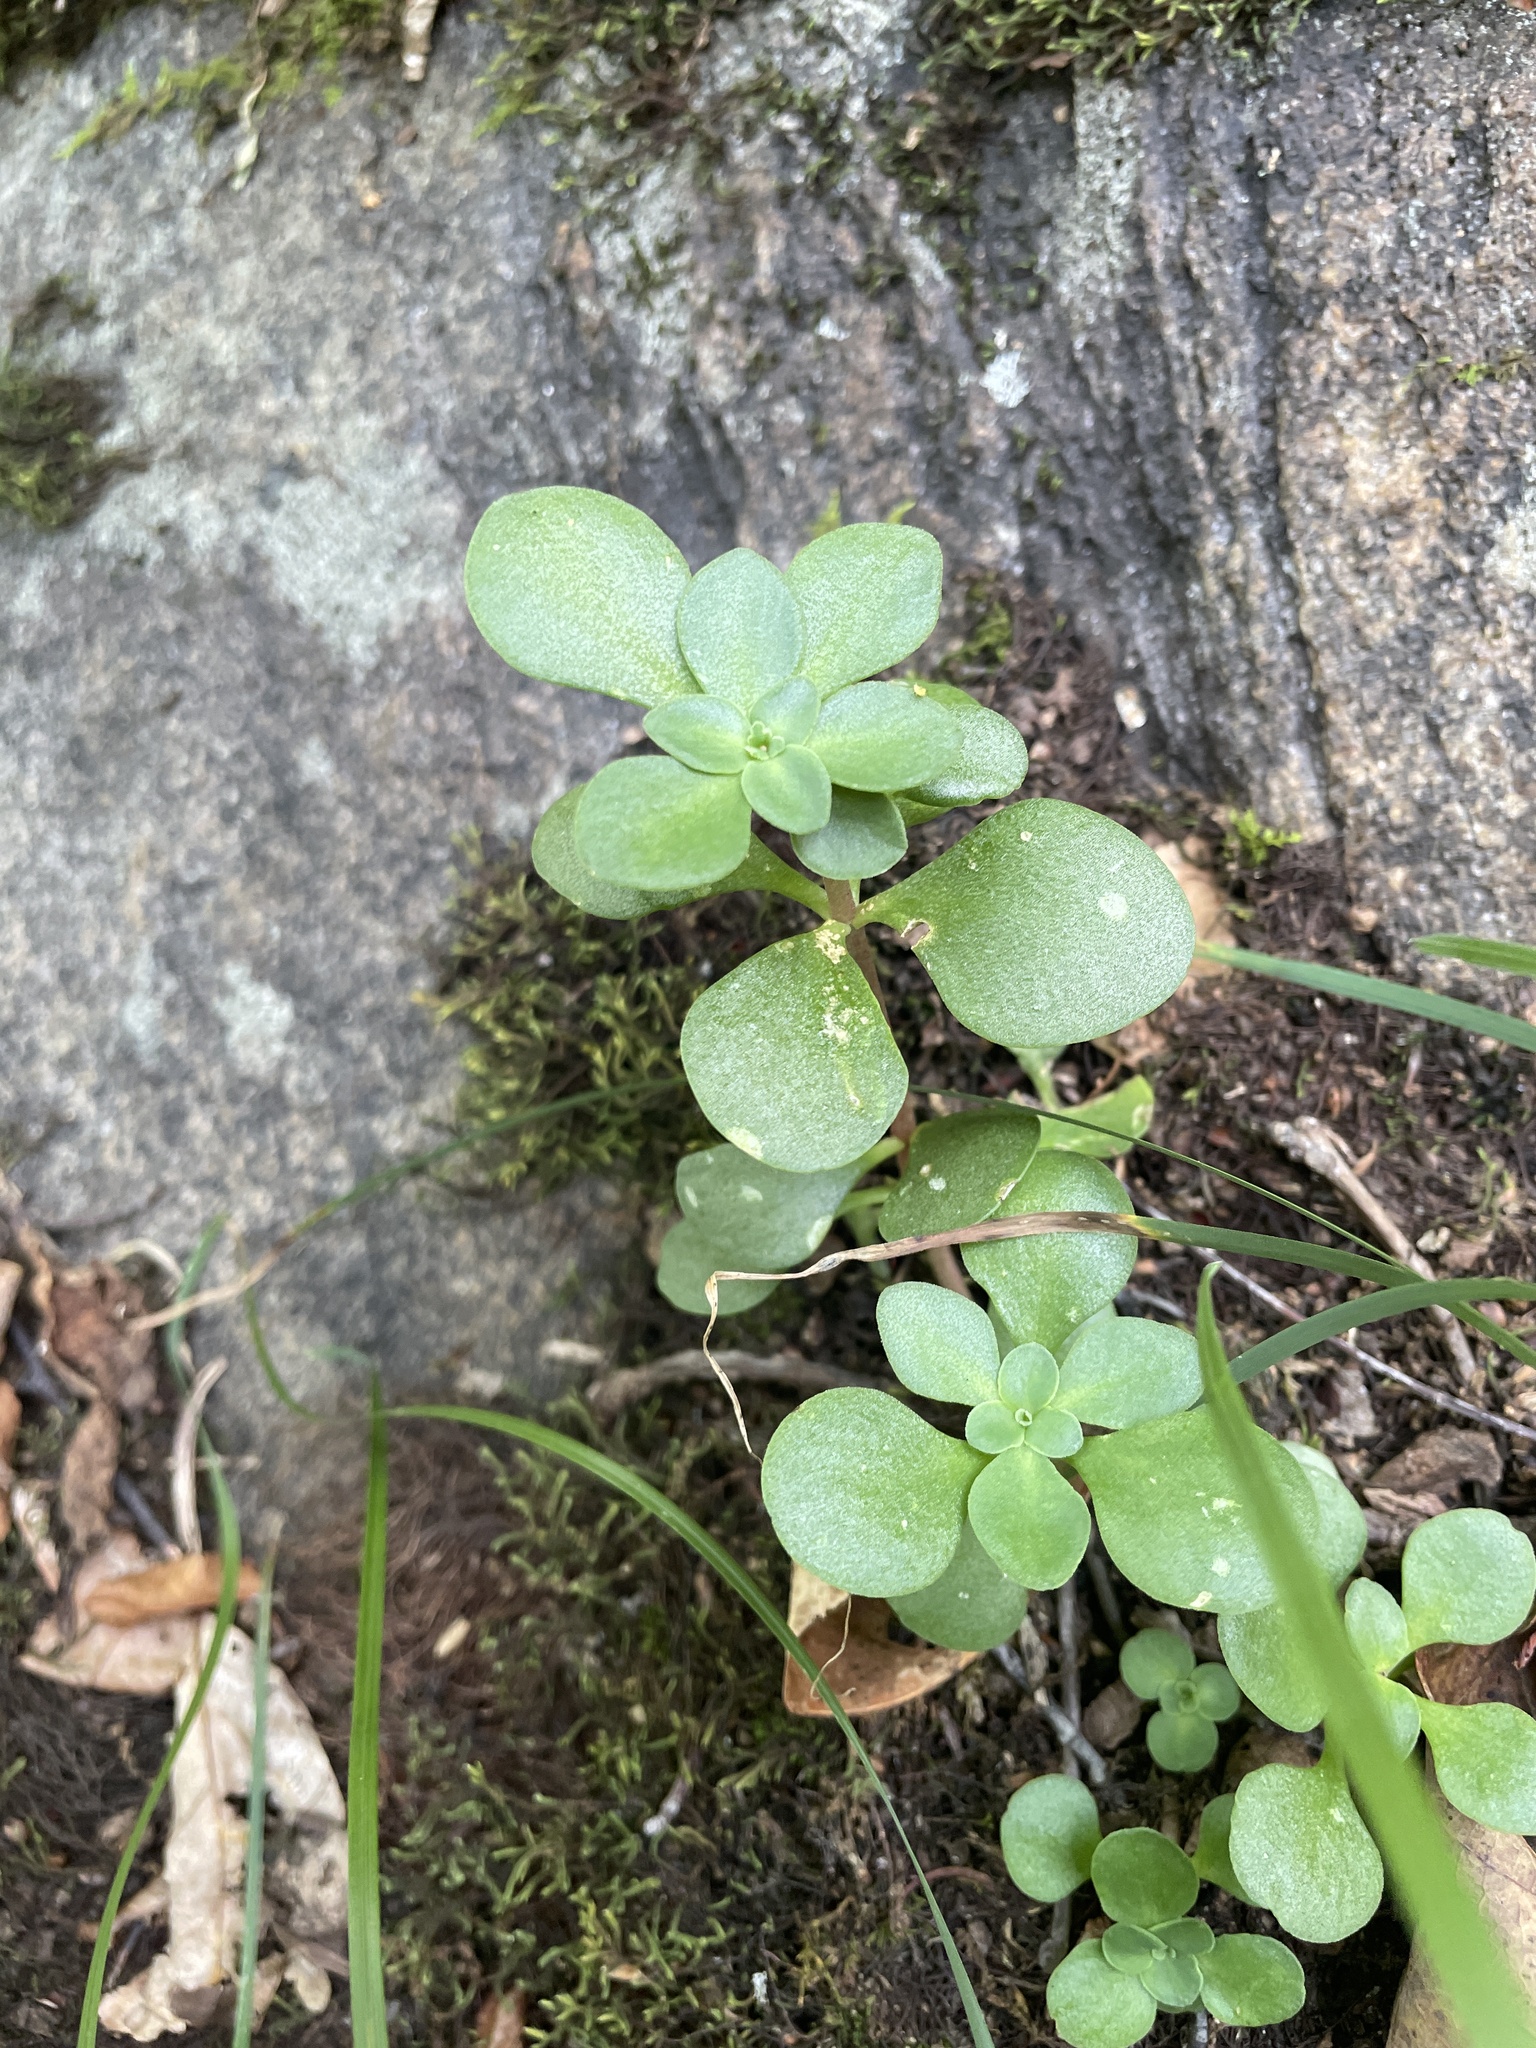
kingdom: Plantae
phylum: Tracheophyta
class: Magnoliopsida
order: Saxifragales
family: Crassulaceae
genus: Sedum
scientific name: Sedum ternatum
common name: Wild stonecrop
